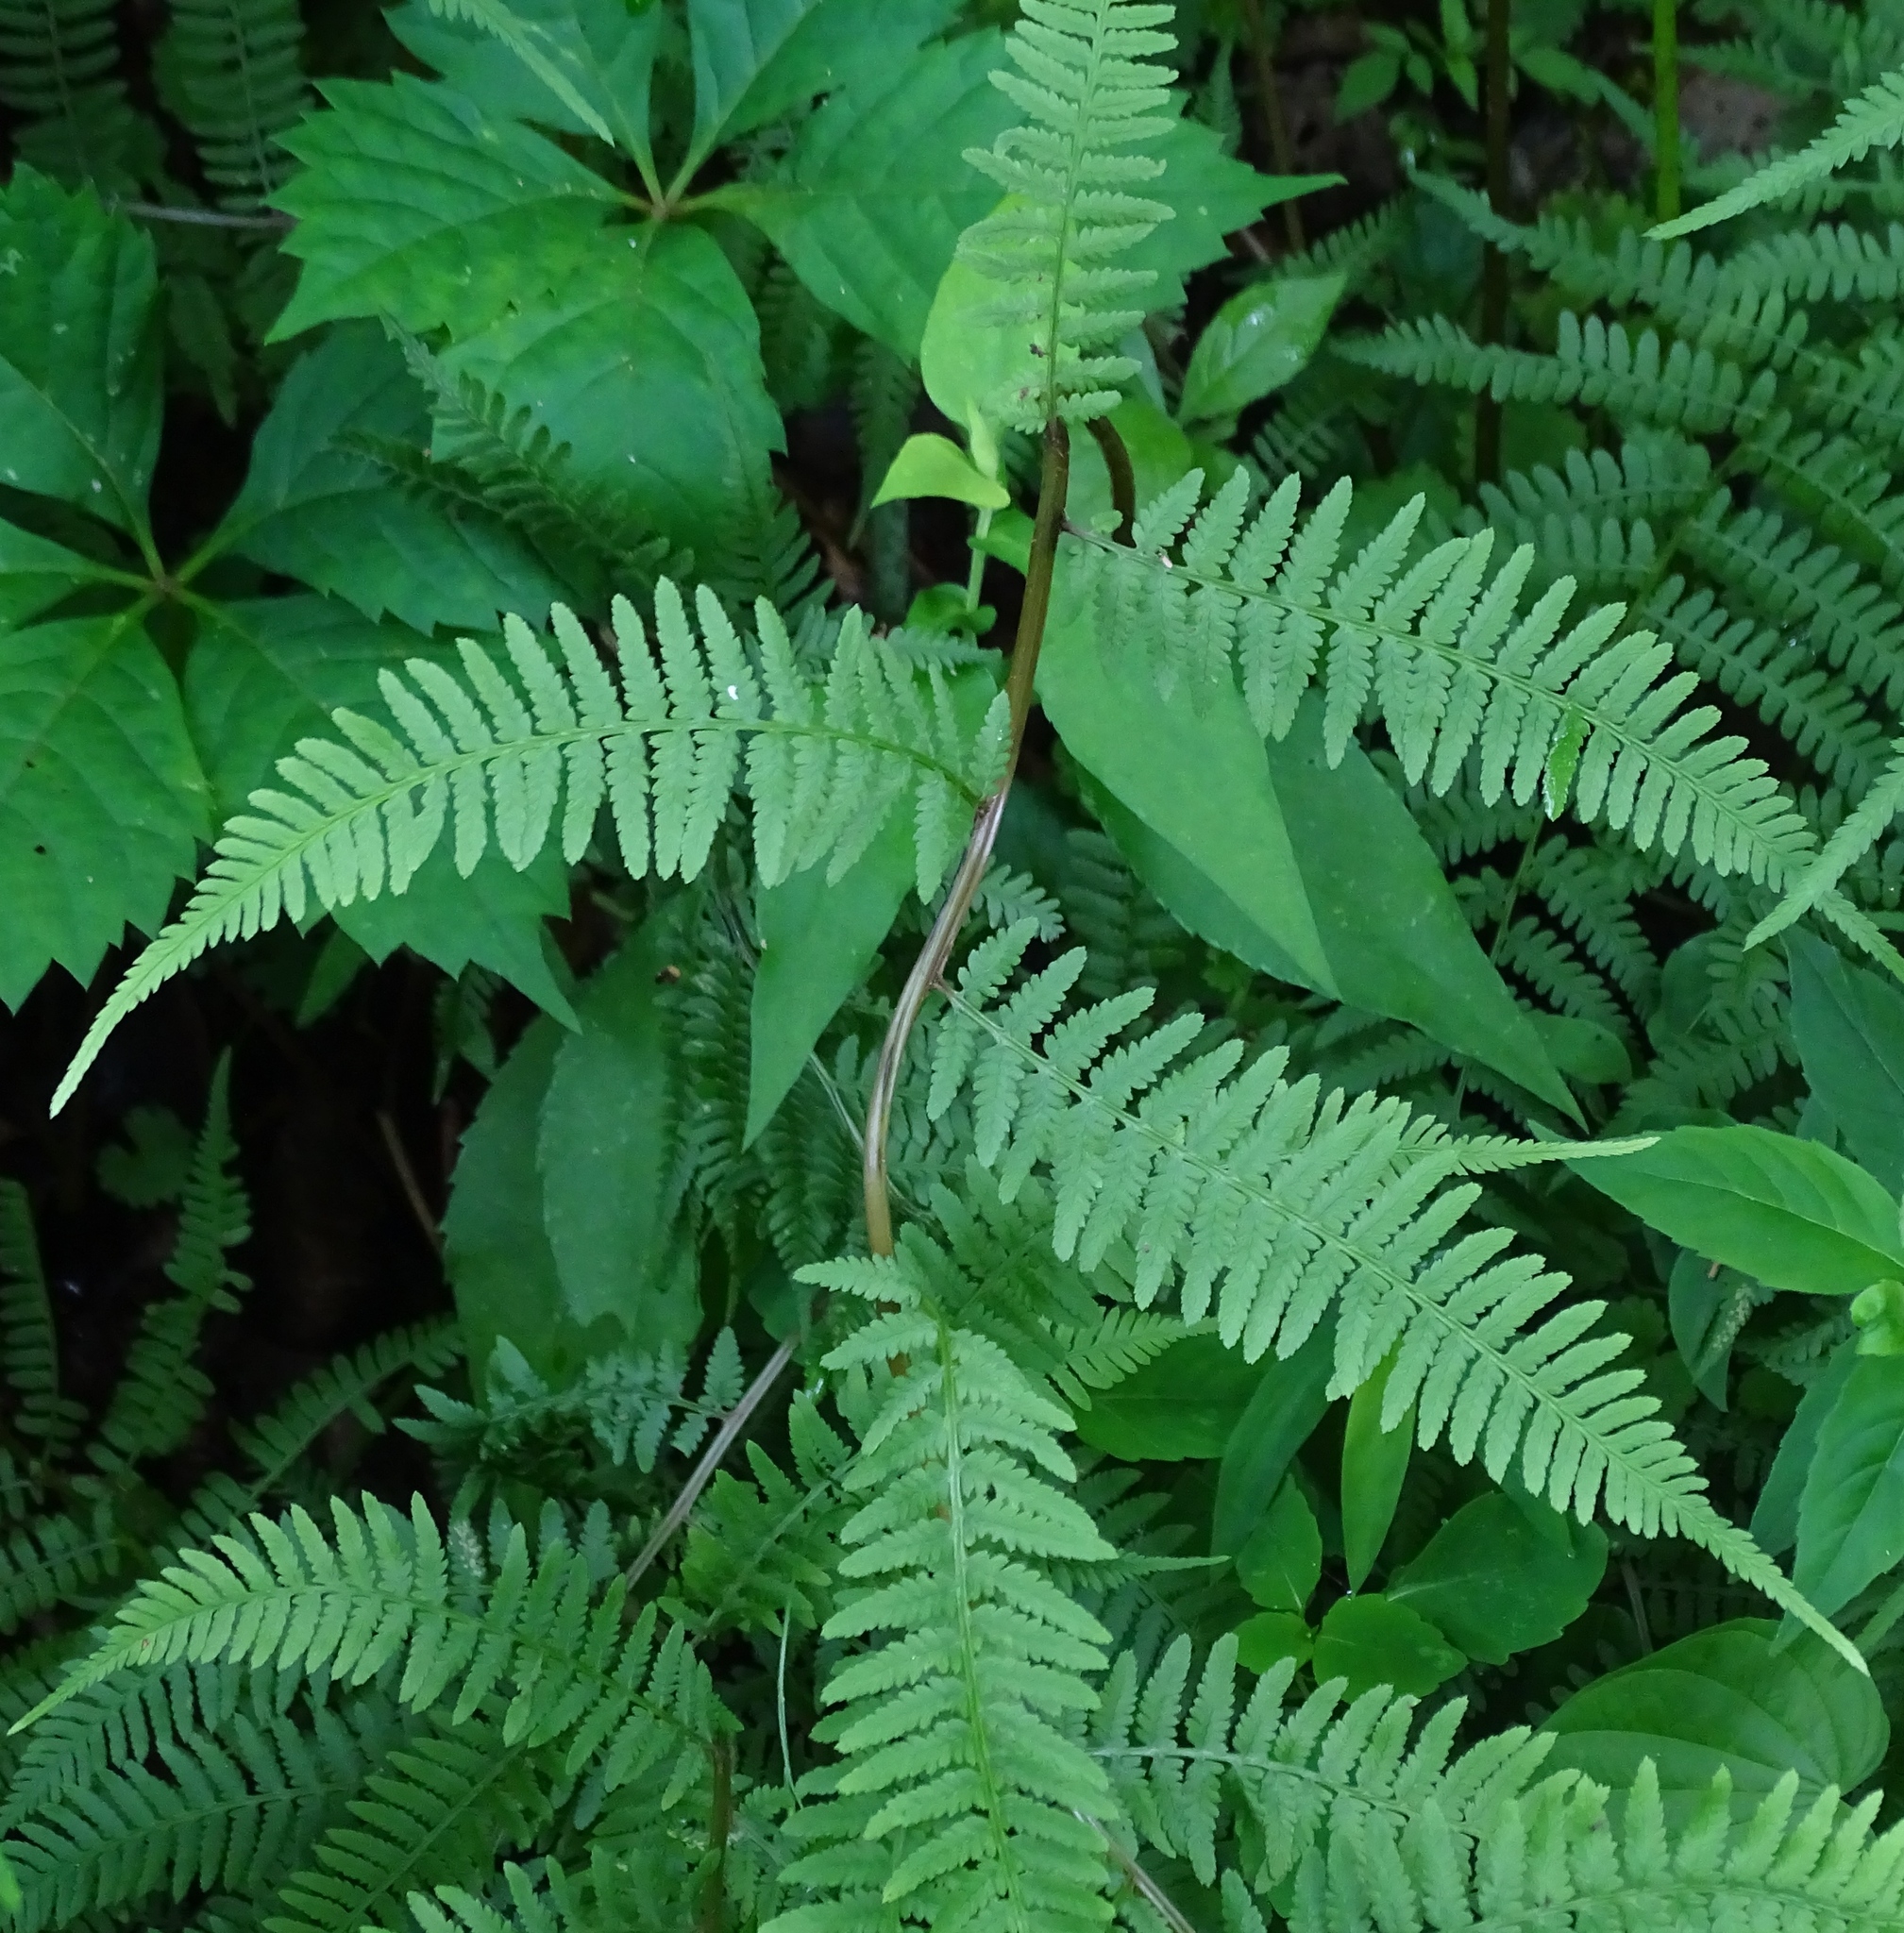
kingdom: Plantae
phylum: Tracheophyta
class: Polypodiopsida
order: Polypodiales
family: Athyriaceae
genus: Athyrium
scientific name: Athyrium angustum
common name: Northern lady fern
